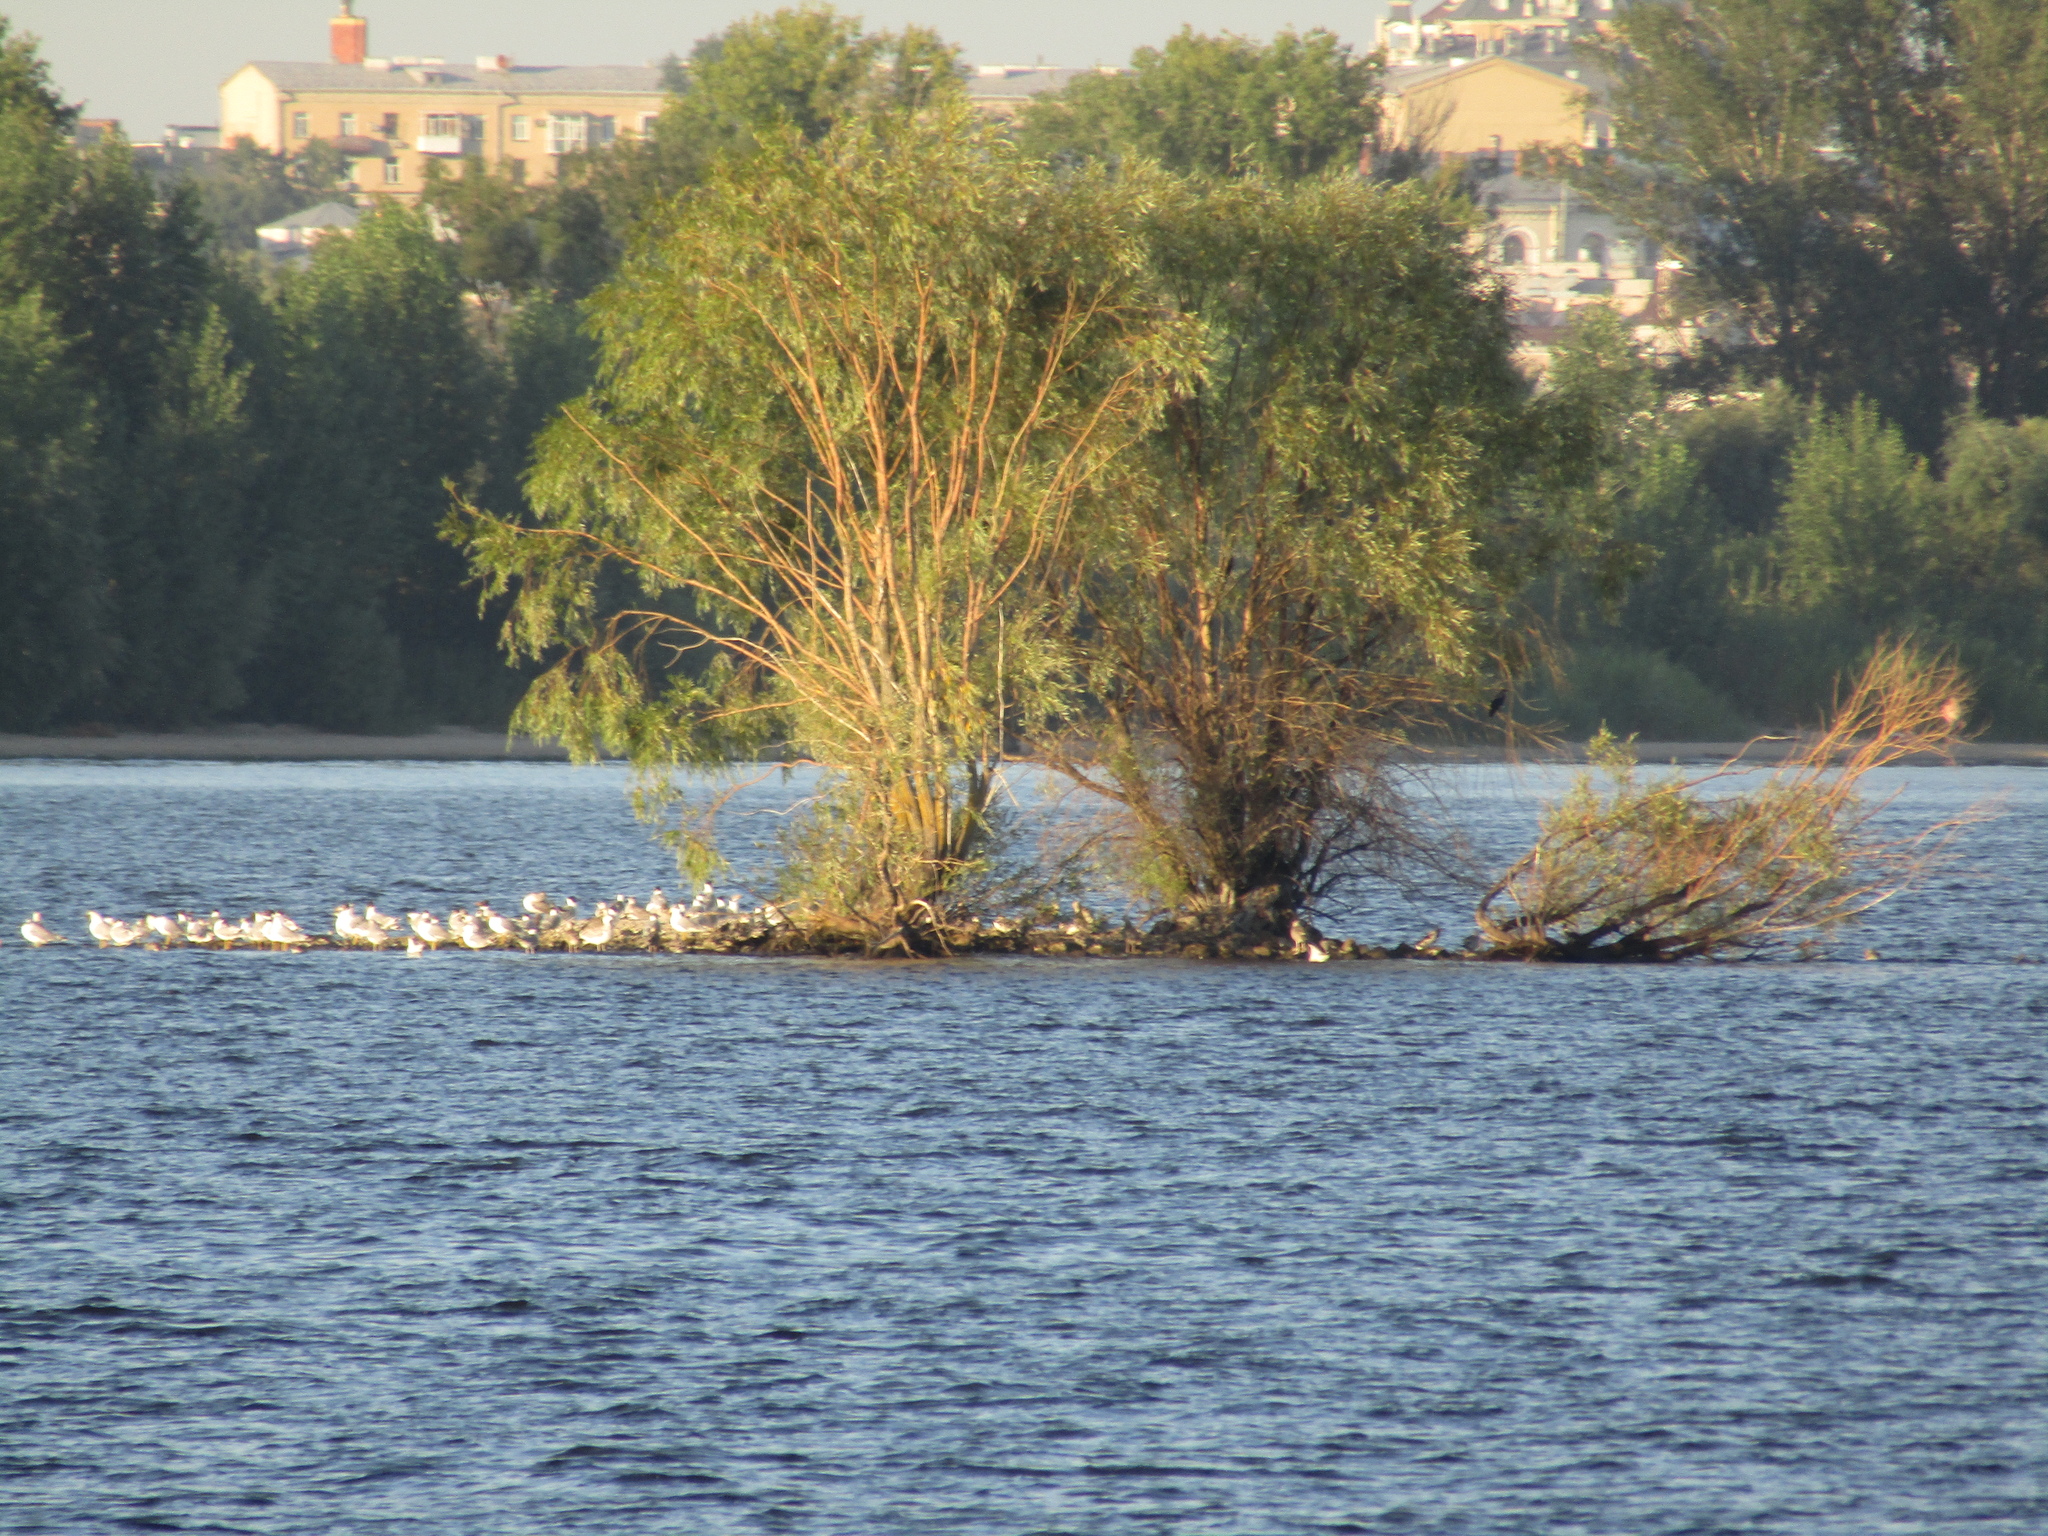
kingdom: Animalia
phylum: Chordata
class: Aves
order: Charadriiformes
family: Laridae
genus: Ichthyaetus
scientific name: Ichthyaetus ichthyaetus
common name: Pallas's gull
